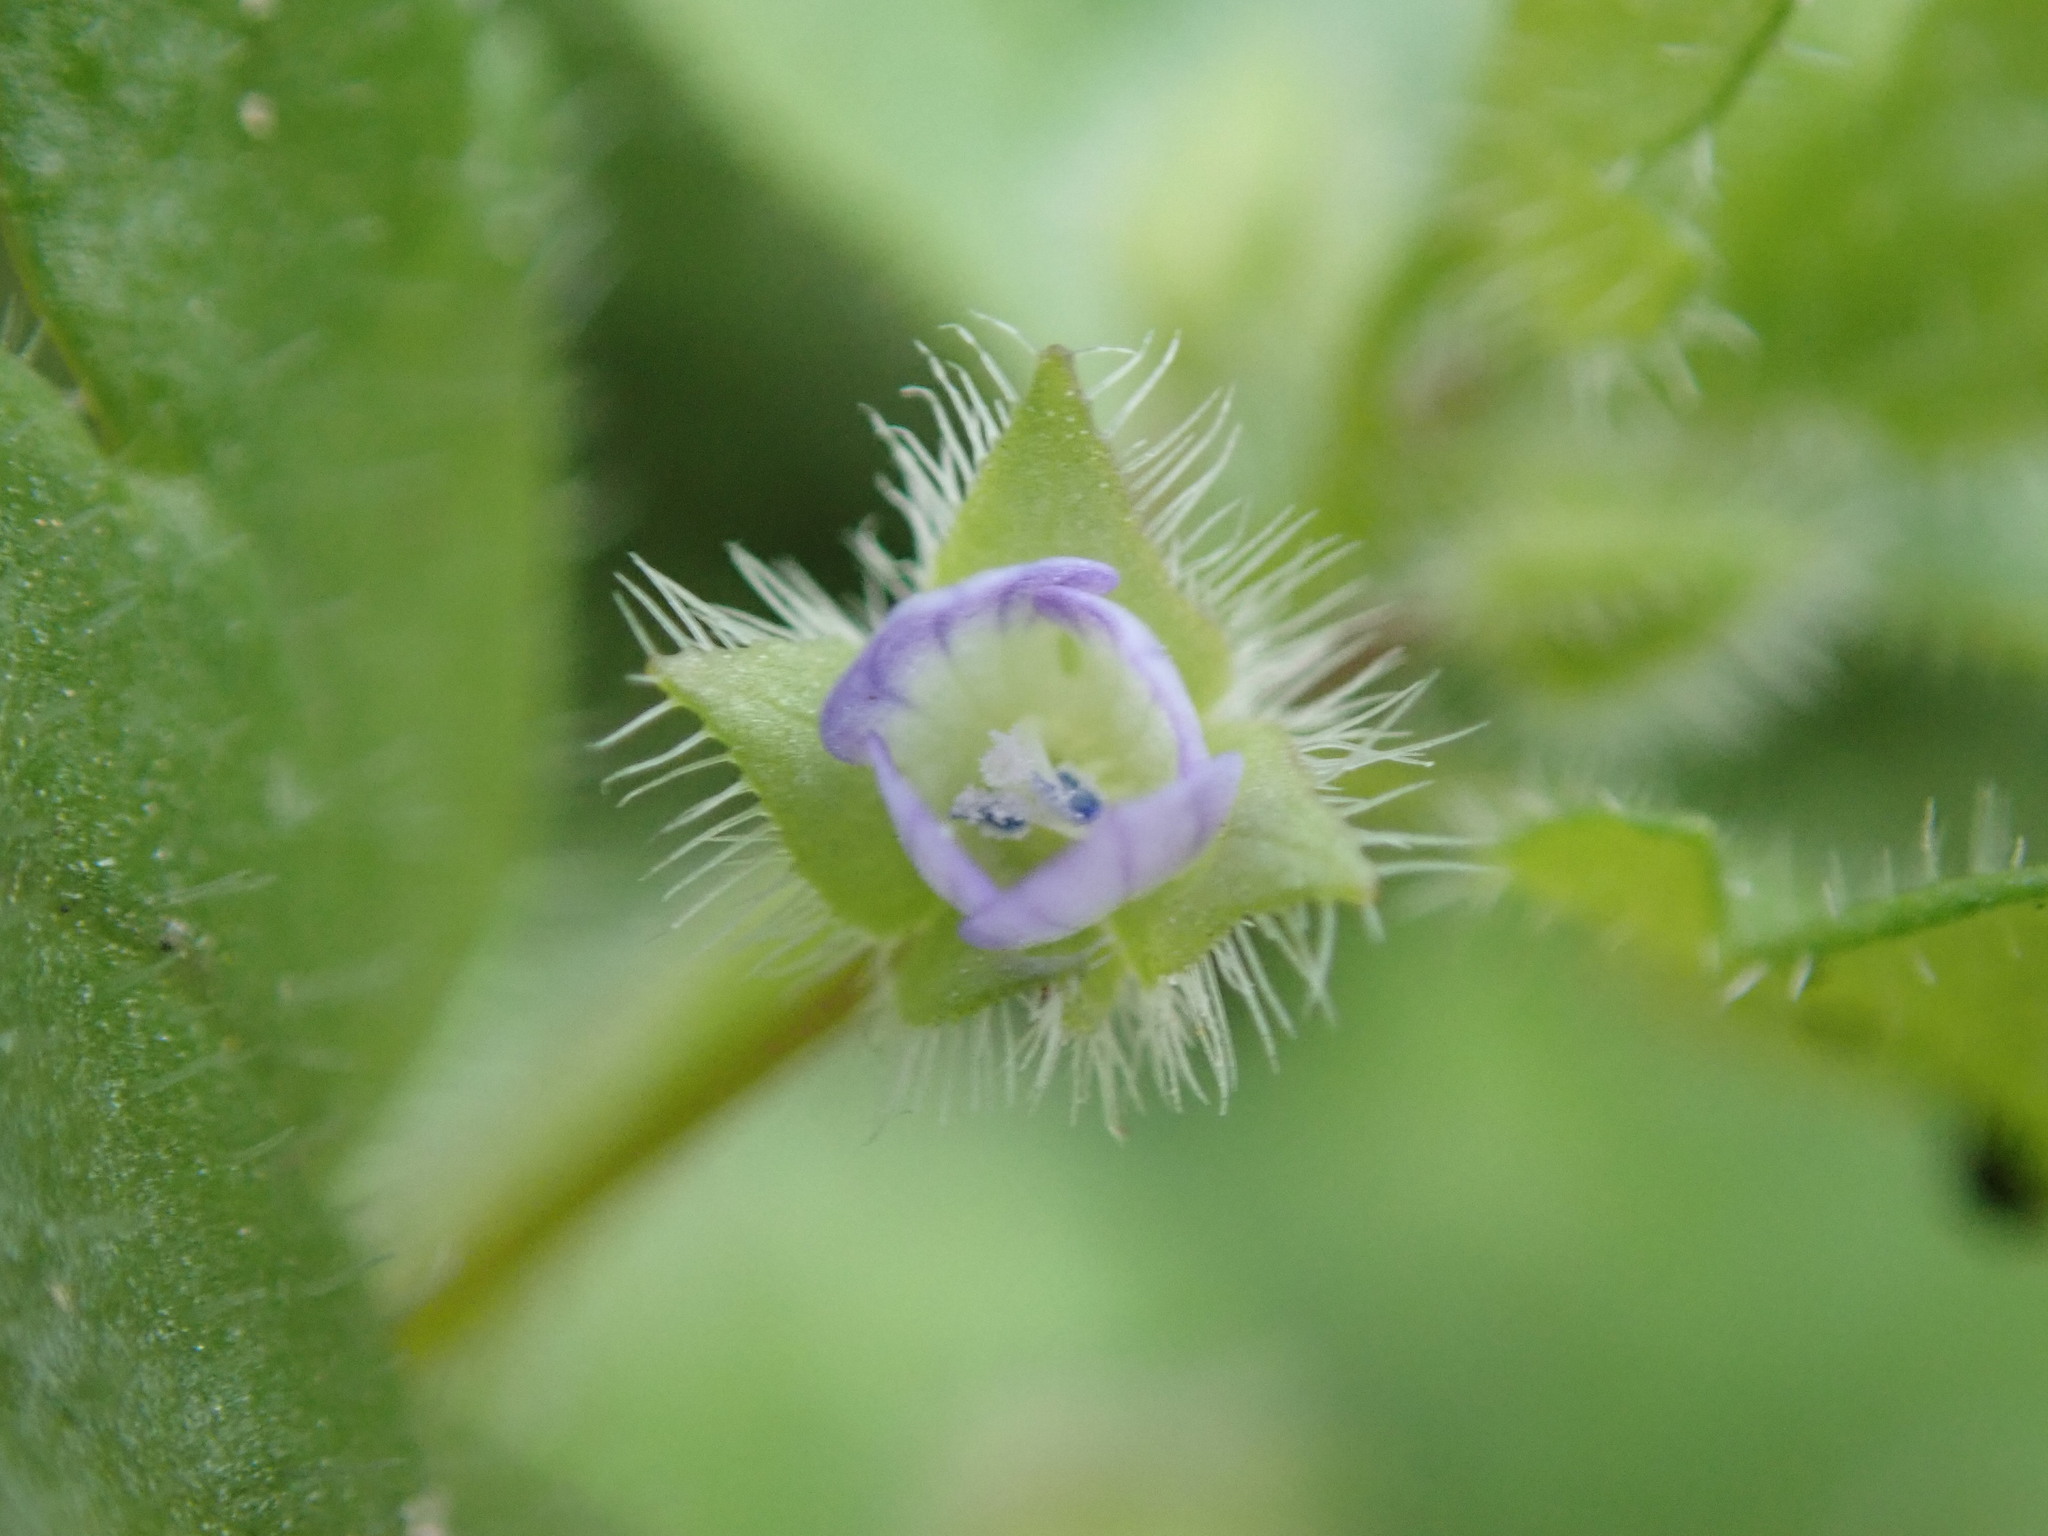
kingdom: Plantae
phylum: Tracheophyta
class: Magnoliopsida
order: Lamiales
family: Plantaginaceae
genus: Veronica
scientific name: Veronica hederifolia
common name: Ivy-leaved speedwell
